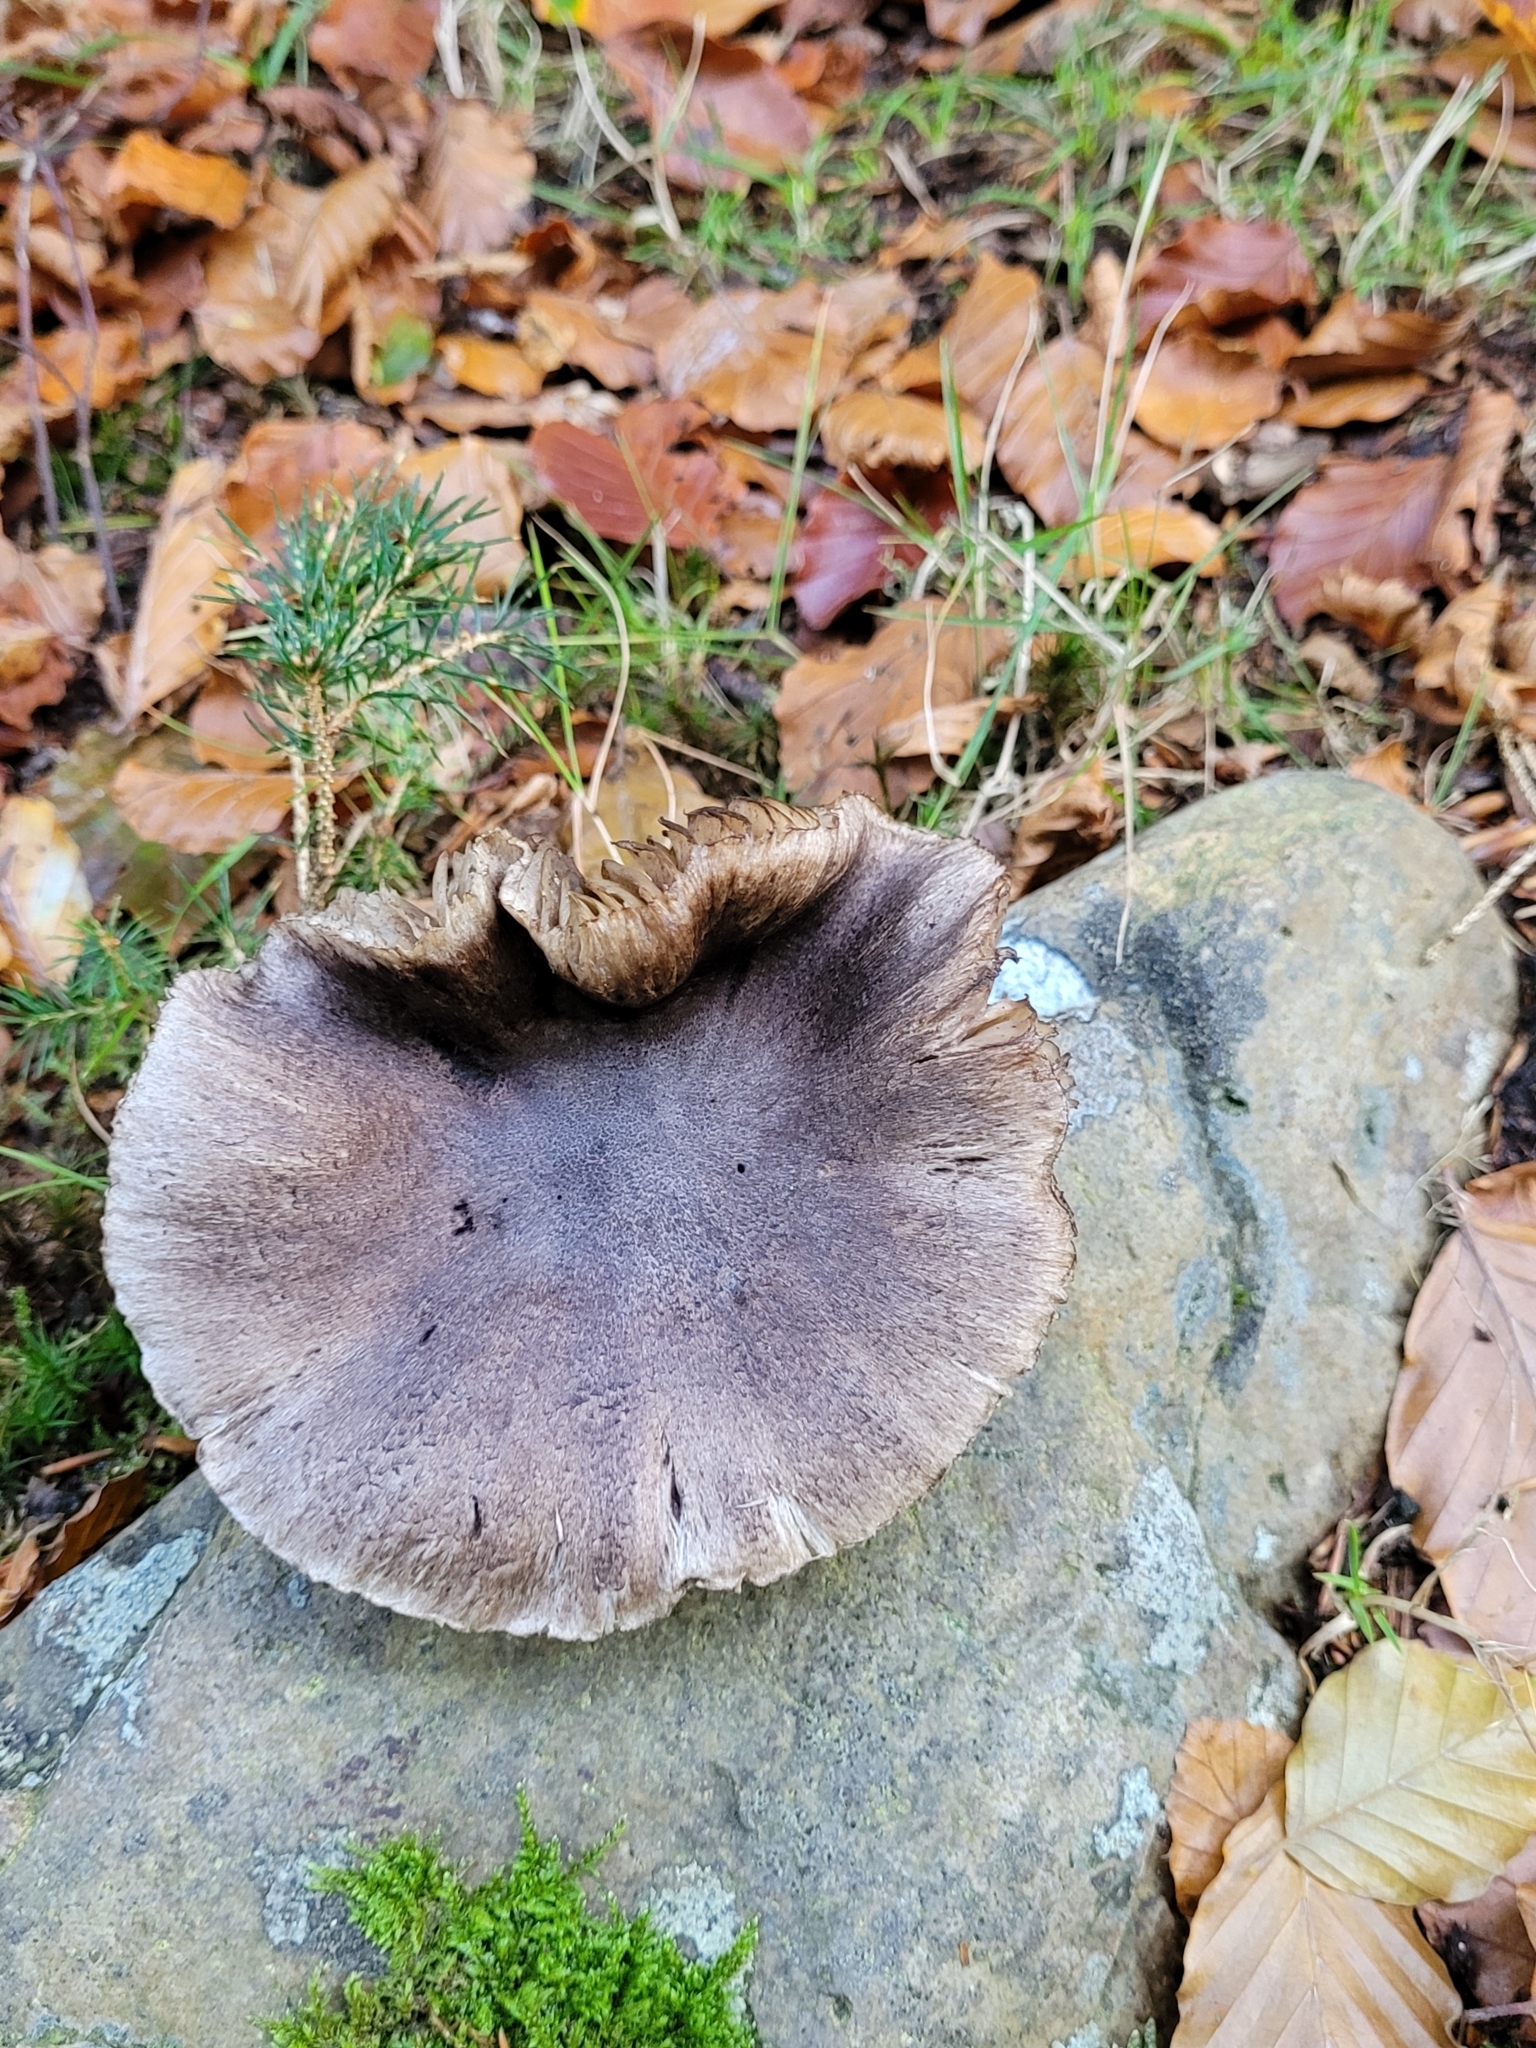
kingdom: Fungi
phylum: Basidiomycota
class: Agaricomycetes
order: Agaricales
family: Tricholomataceae
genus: Tricholoma
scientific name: Tricholoma sciodes
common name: Beech knight
